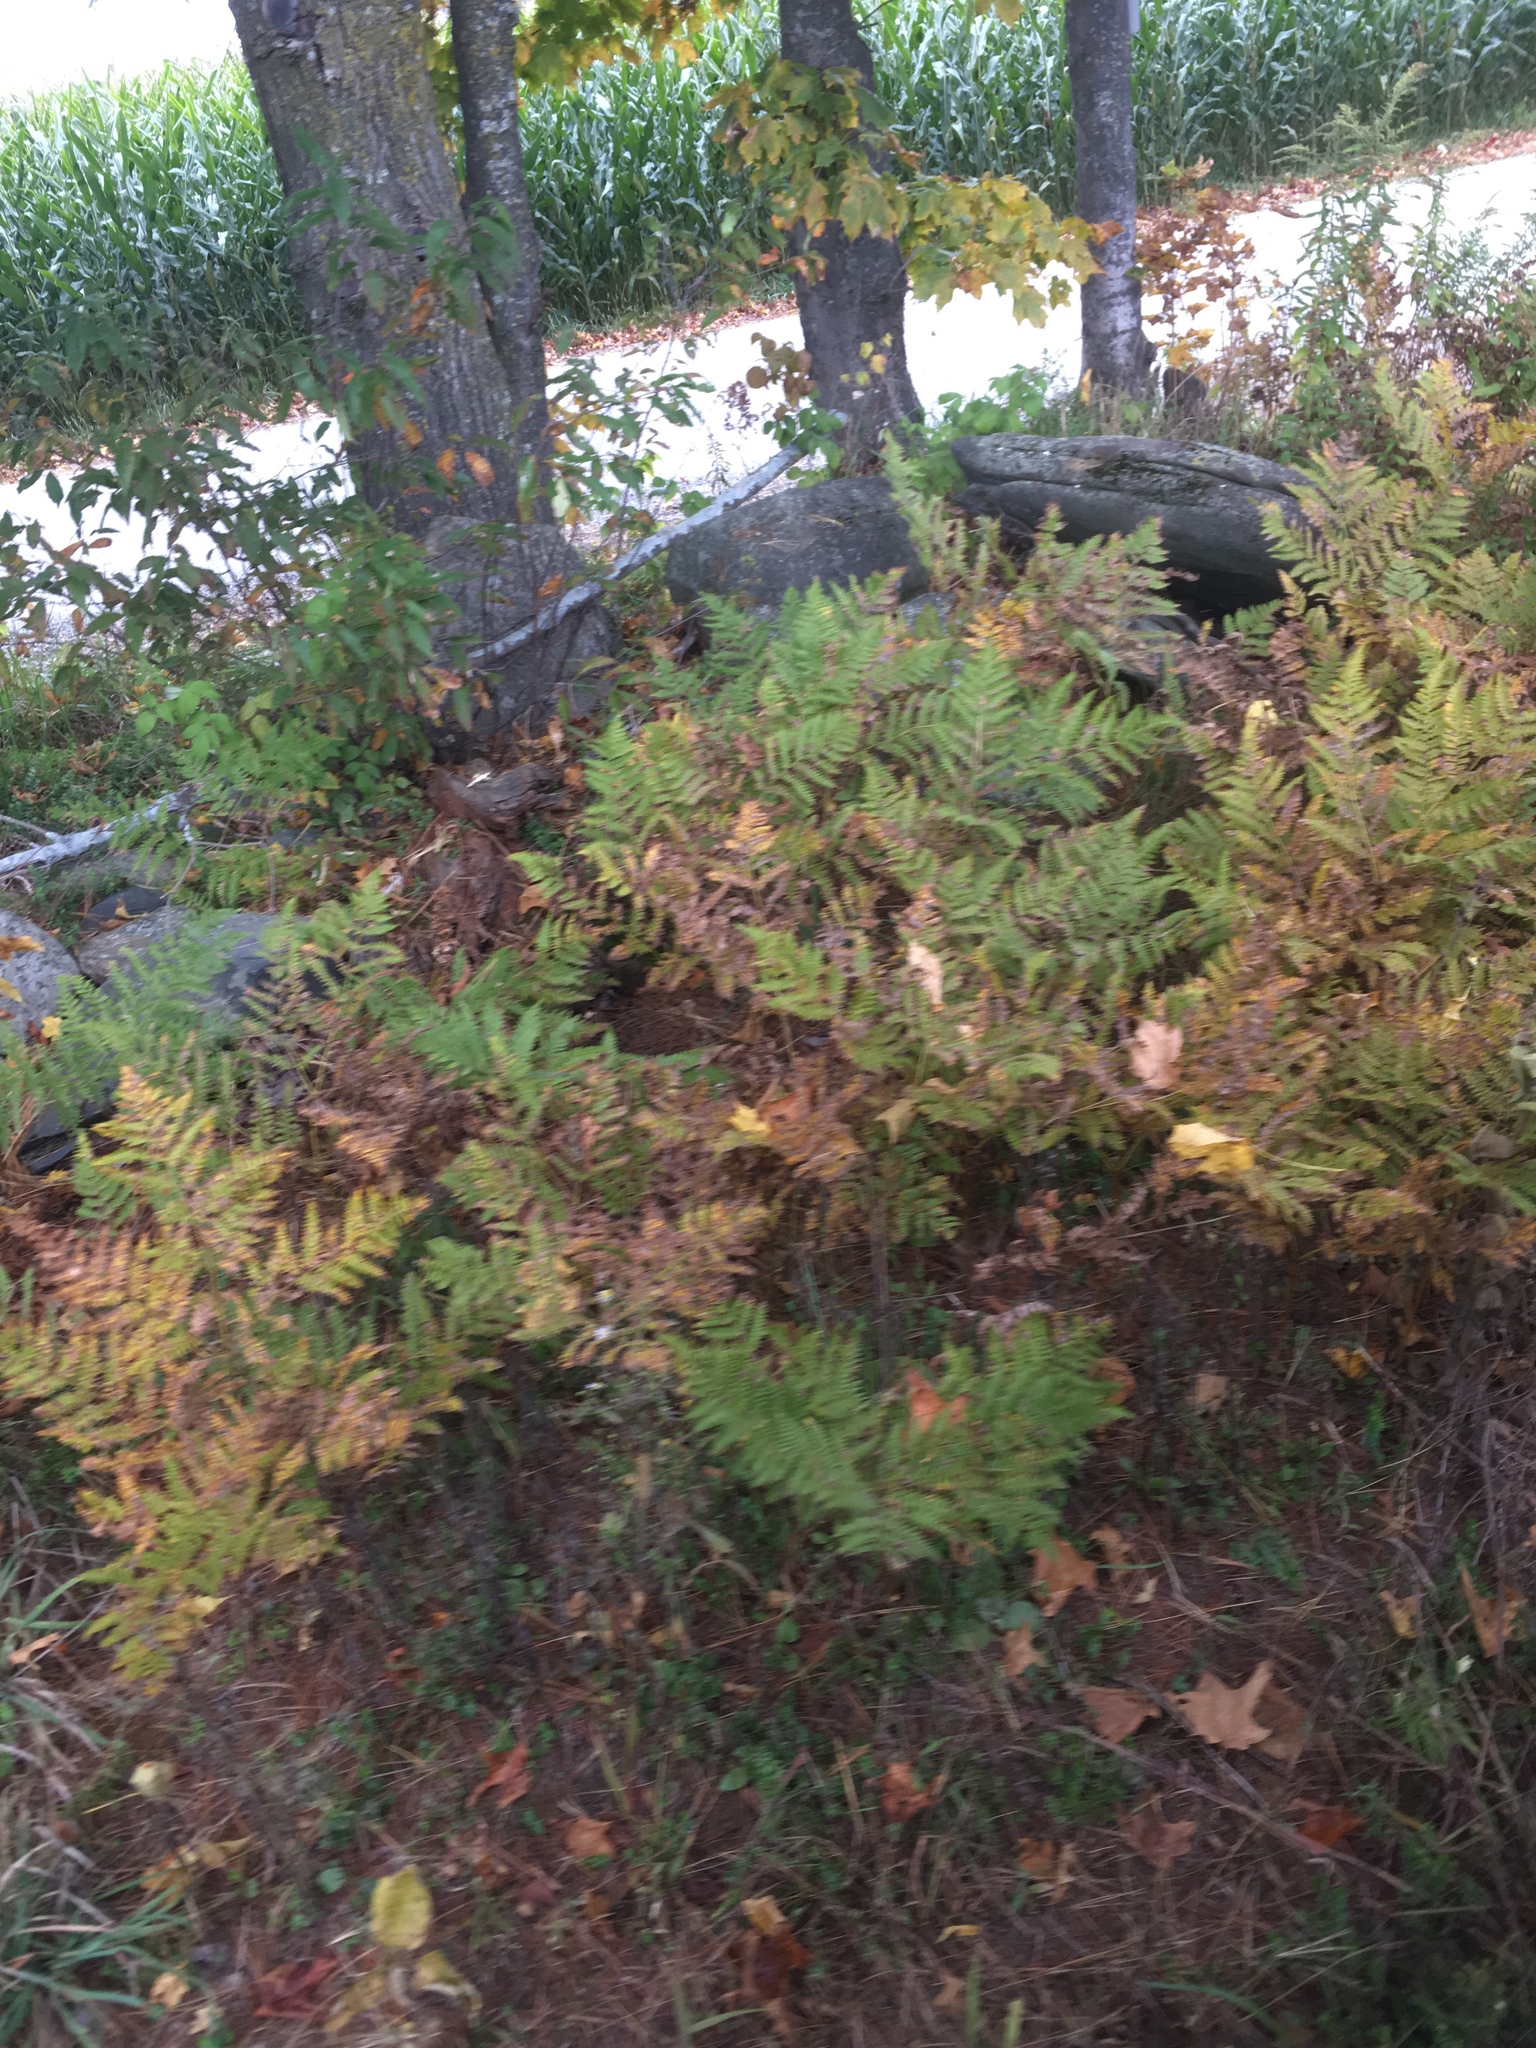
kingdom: Plantae
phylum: Tracheophyta
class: Polypodiopsida
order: Polypodiales
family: Dennstaedtiaceae
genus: Pteridium
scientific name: Pteridium aquilinum
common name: Bracken
